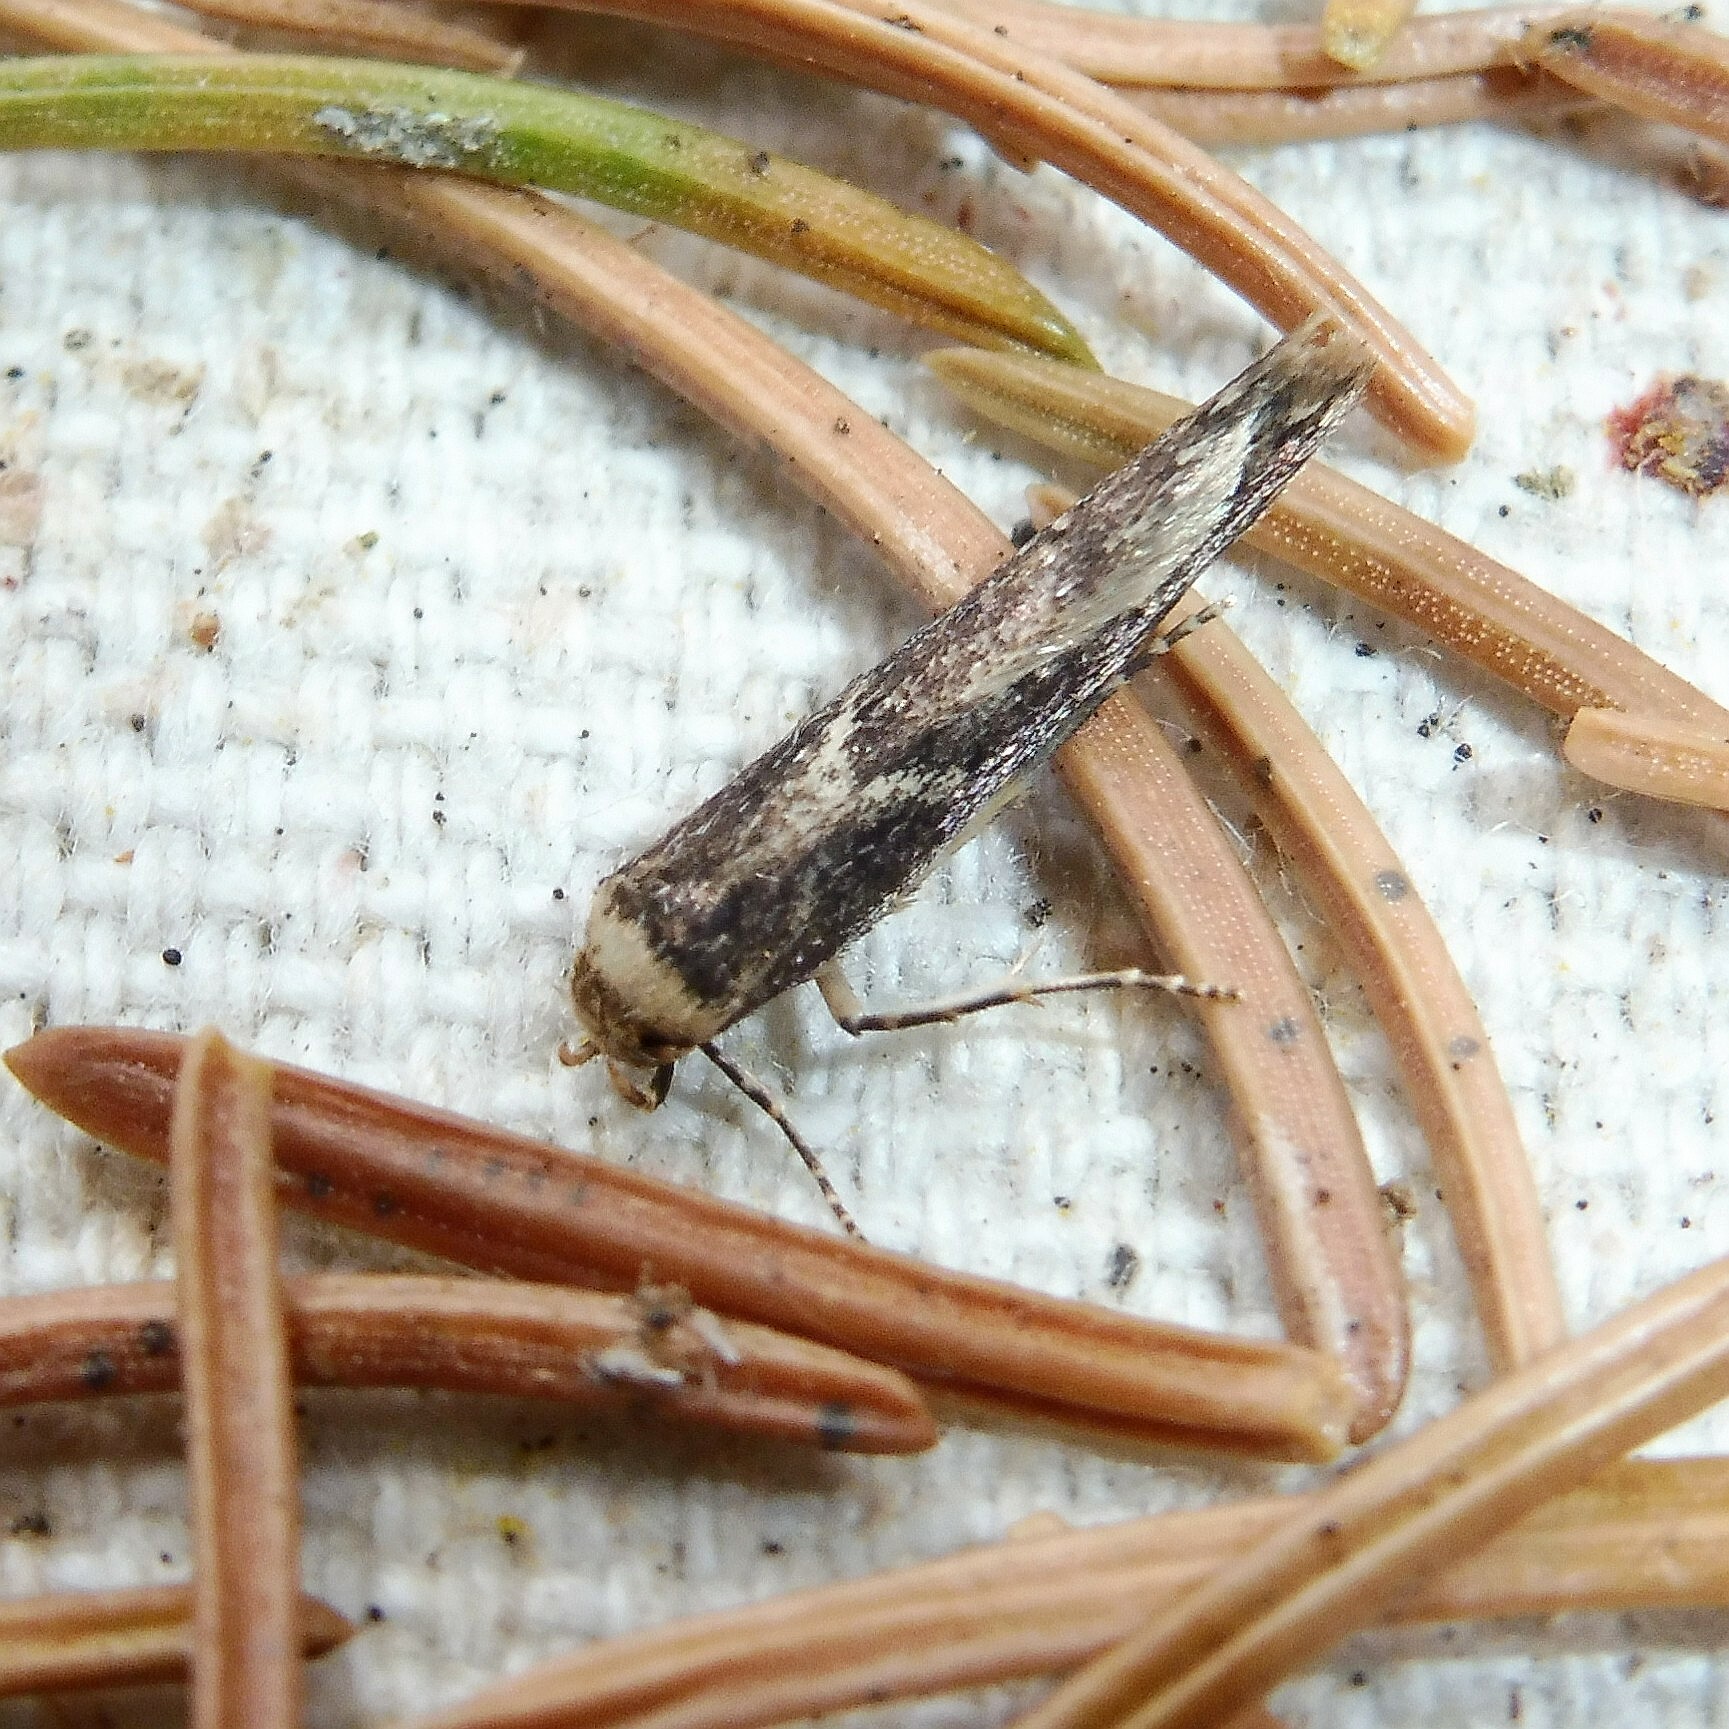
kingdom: Animalia
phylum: Arthropoda
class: Insecta
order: Lepidoptera
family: Blastobasidae
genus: Blastobasis
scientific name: Blastobasis adustella
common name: Dingy dowd
